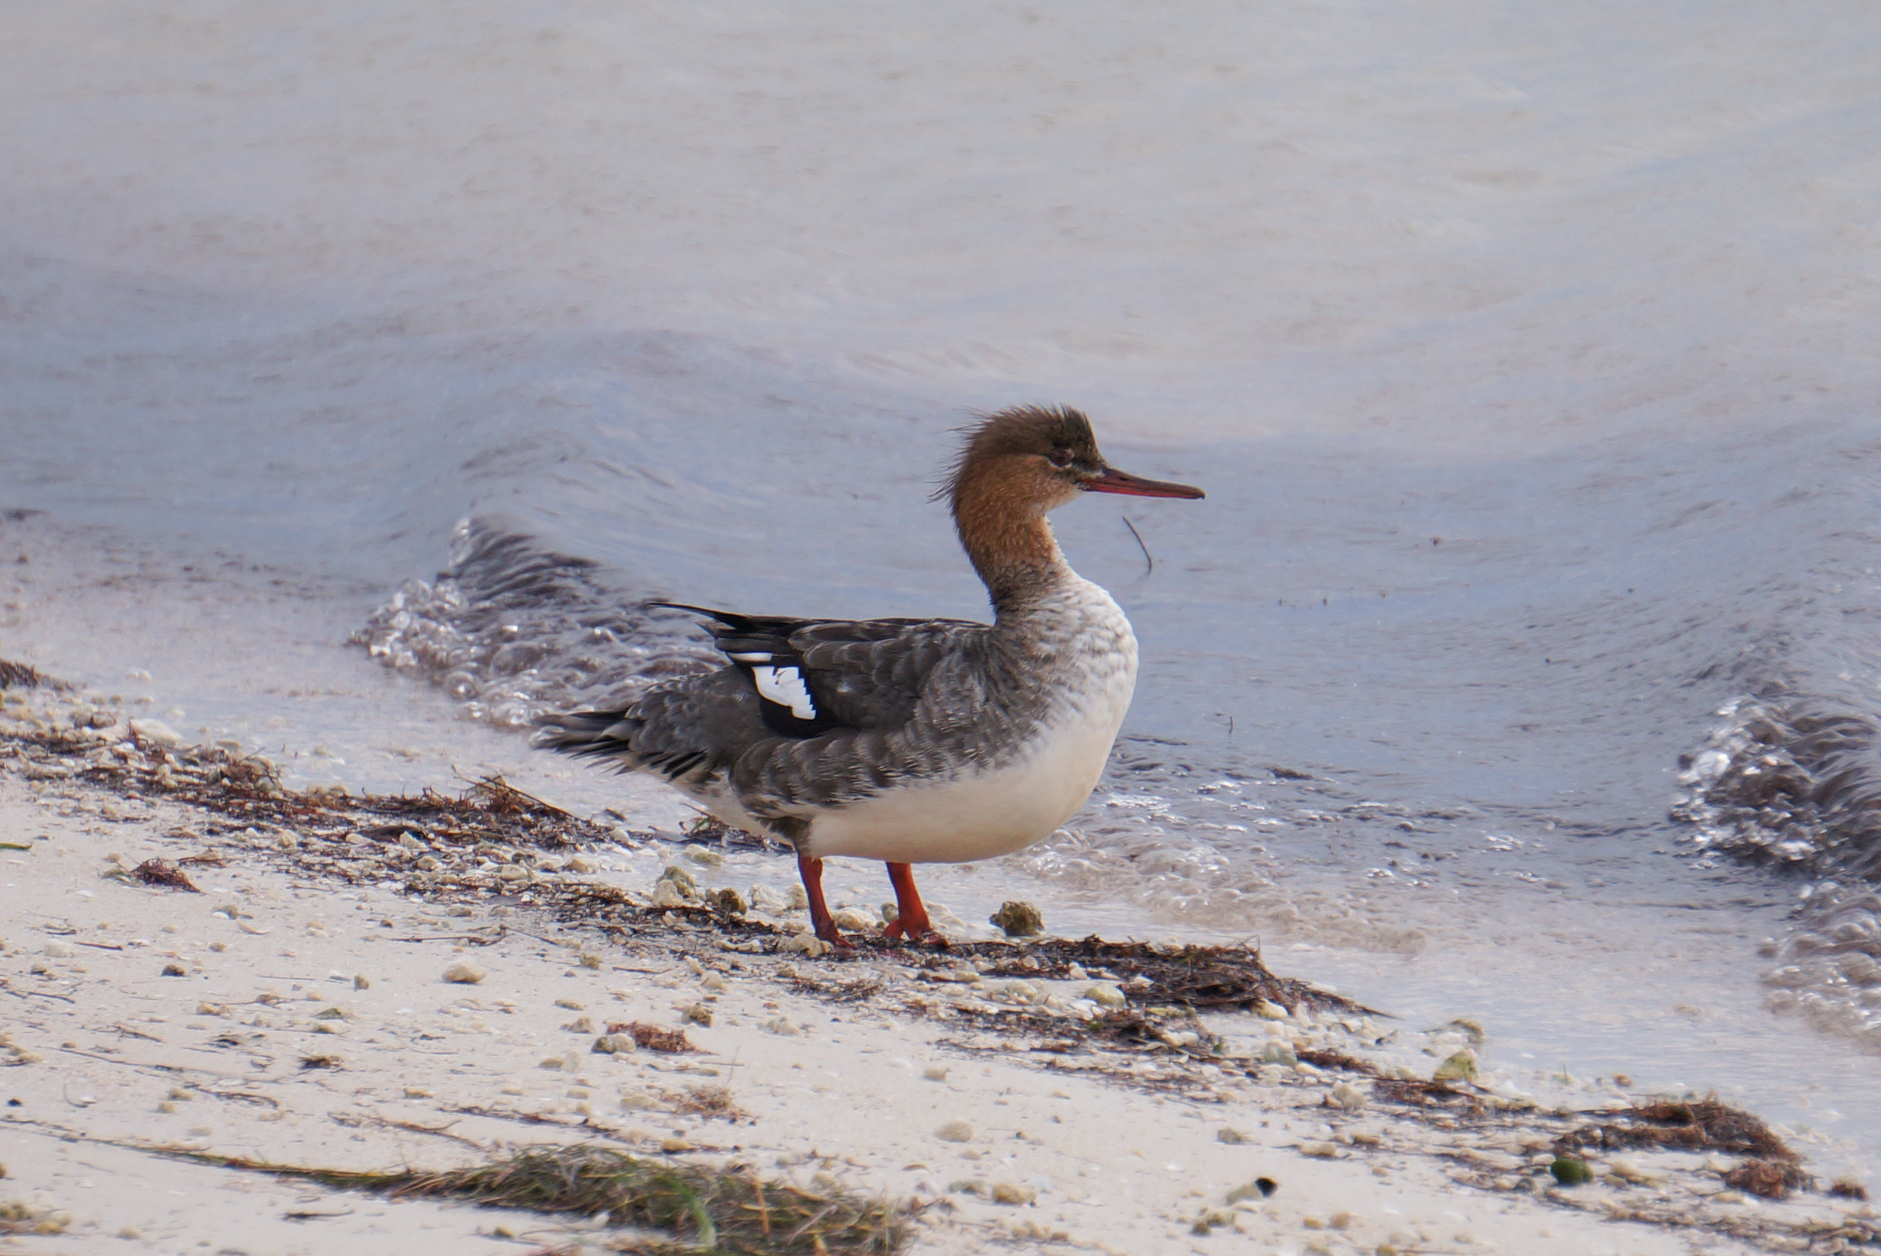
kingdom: Animalia
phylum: Chordata
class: Aves
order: Anseriformes
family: Anatidae
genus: Mergus
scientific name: Mergus serrator
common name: Red-breasted merganser
